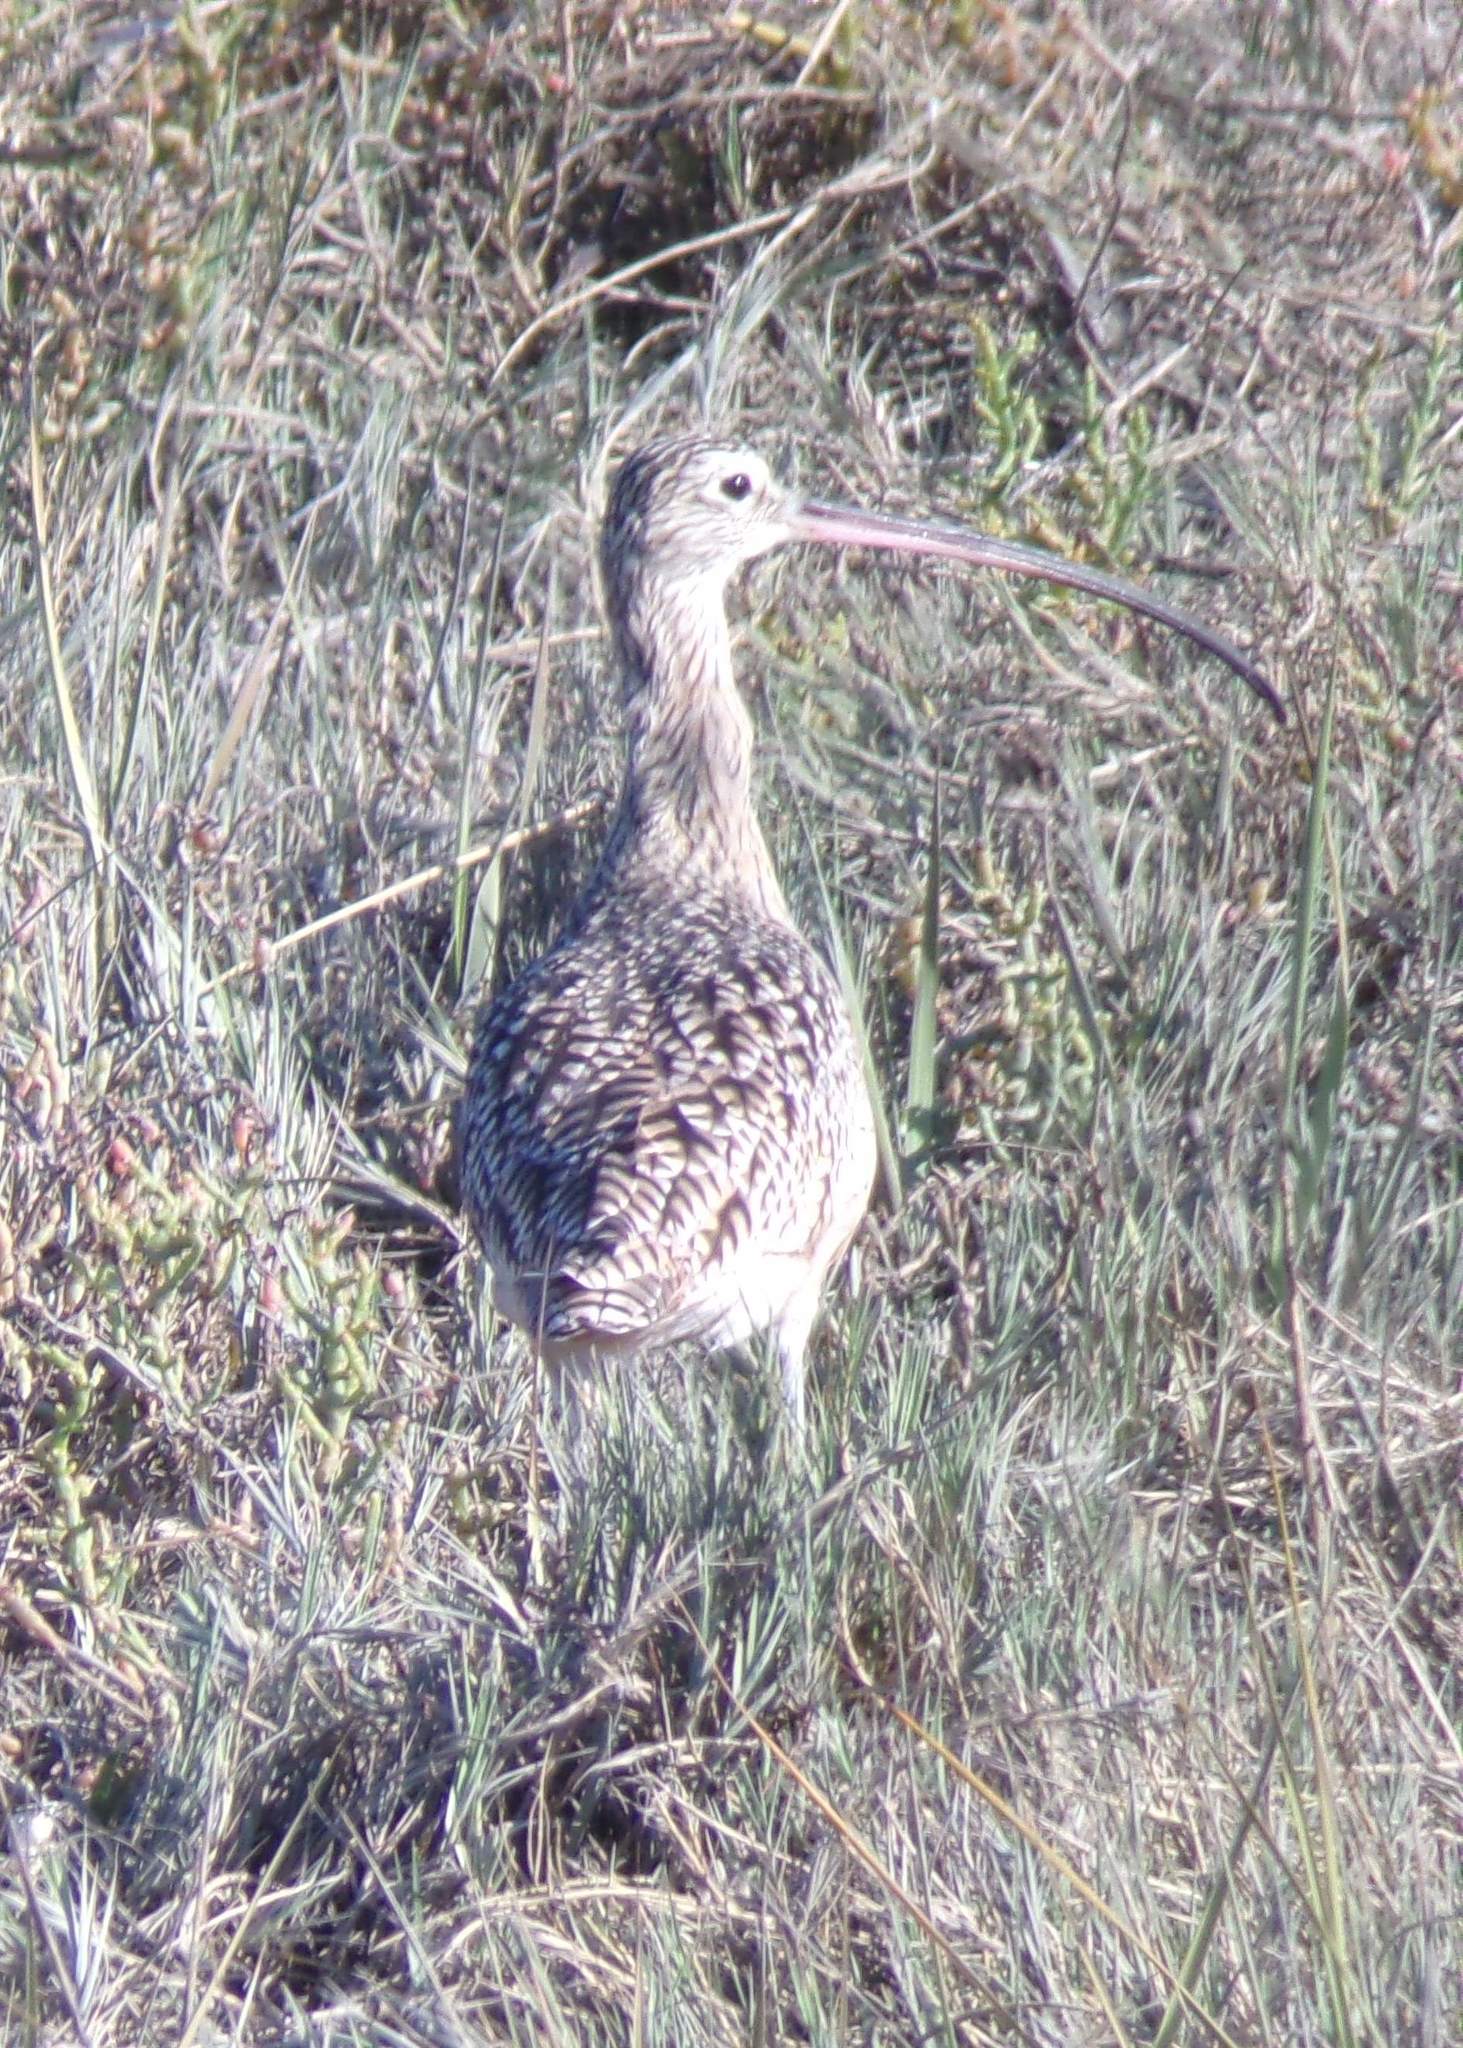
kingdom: Animalia
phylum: Chordata
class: Aves
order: Charadriiformes
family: Scolopacidae
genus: Numenius
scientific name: Numenius americanus
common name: Long-billed curlew
